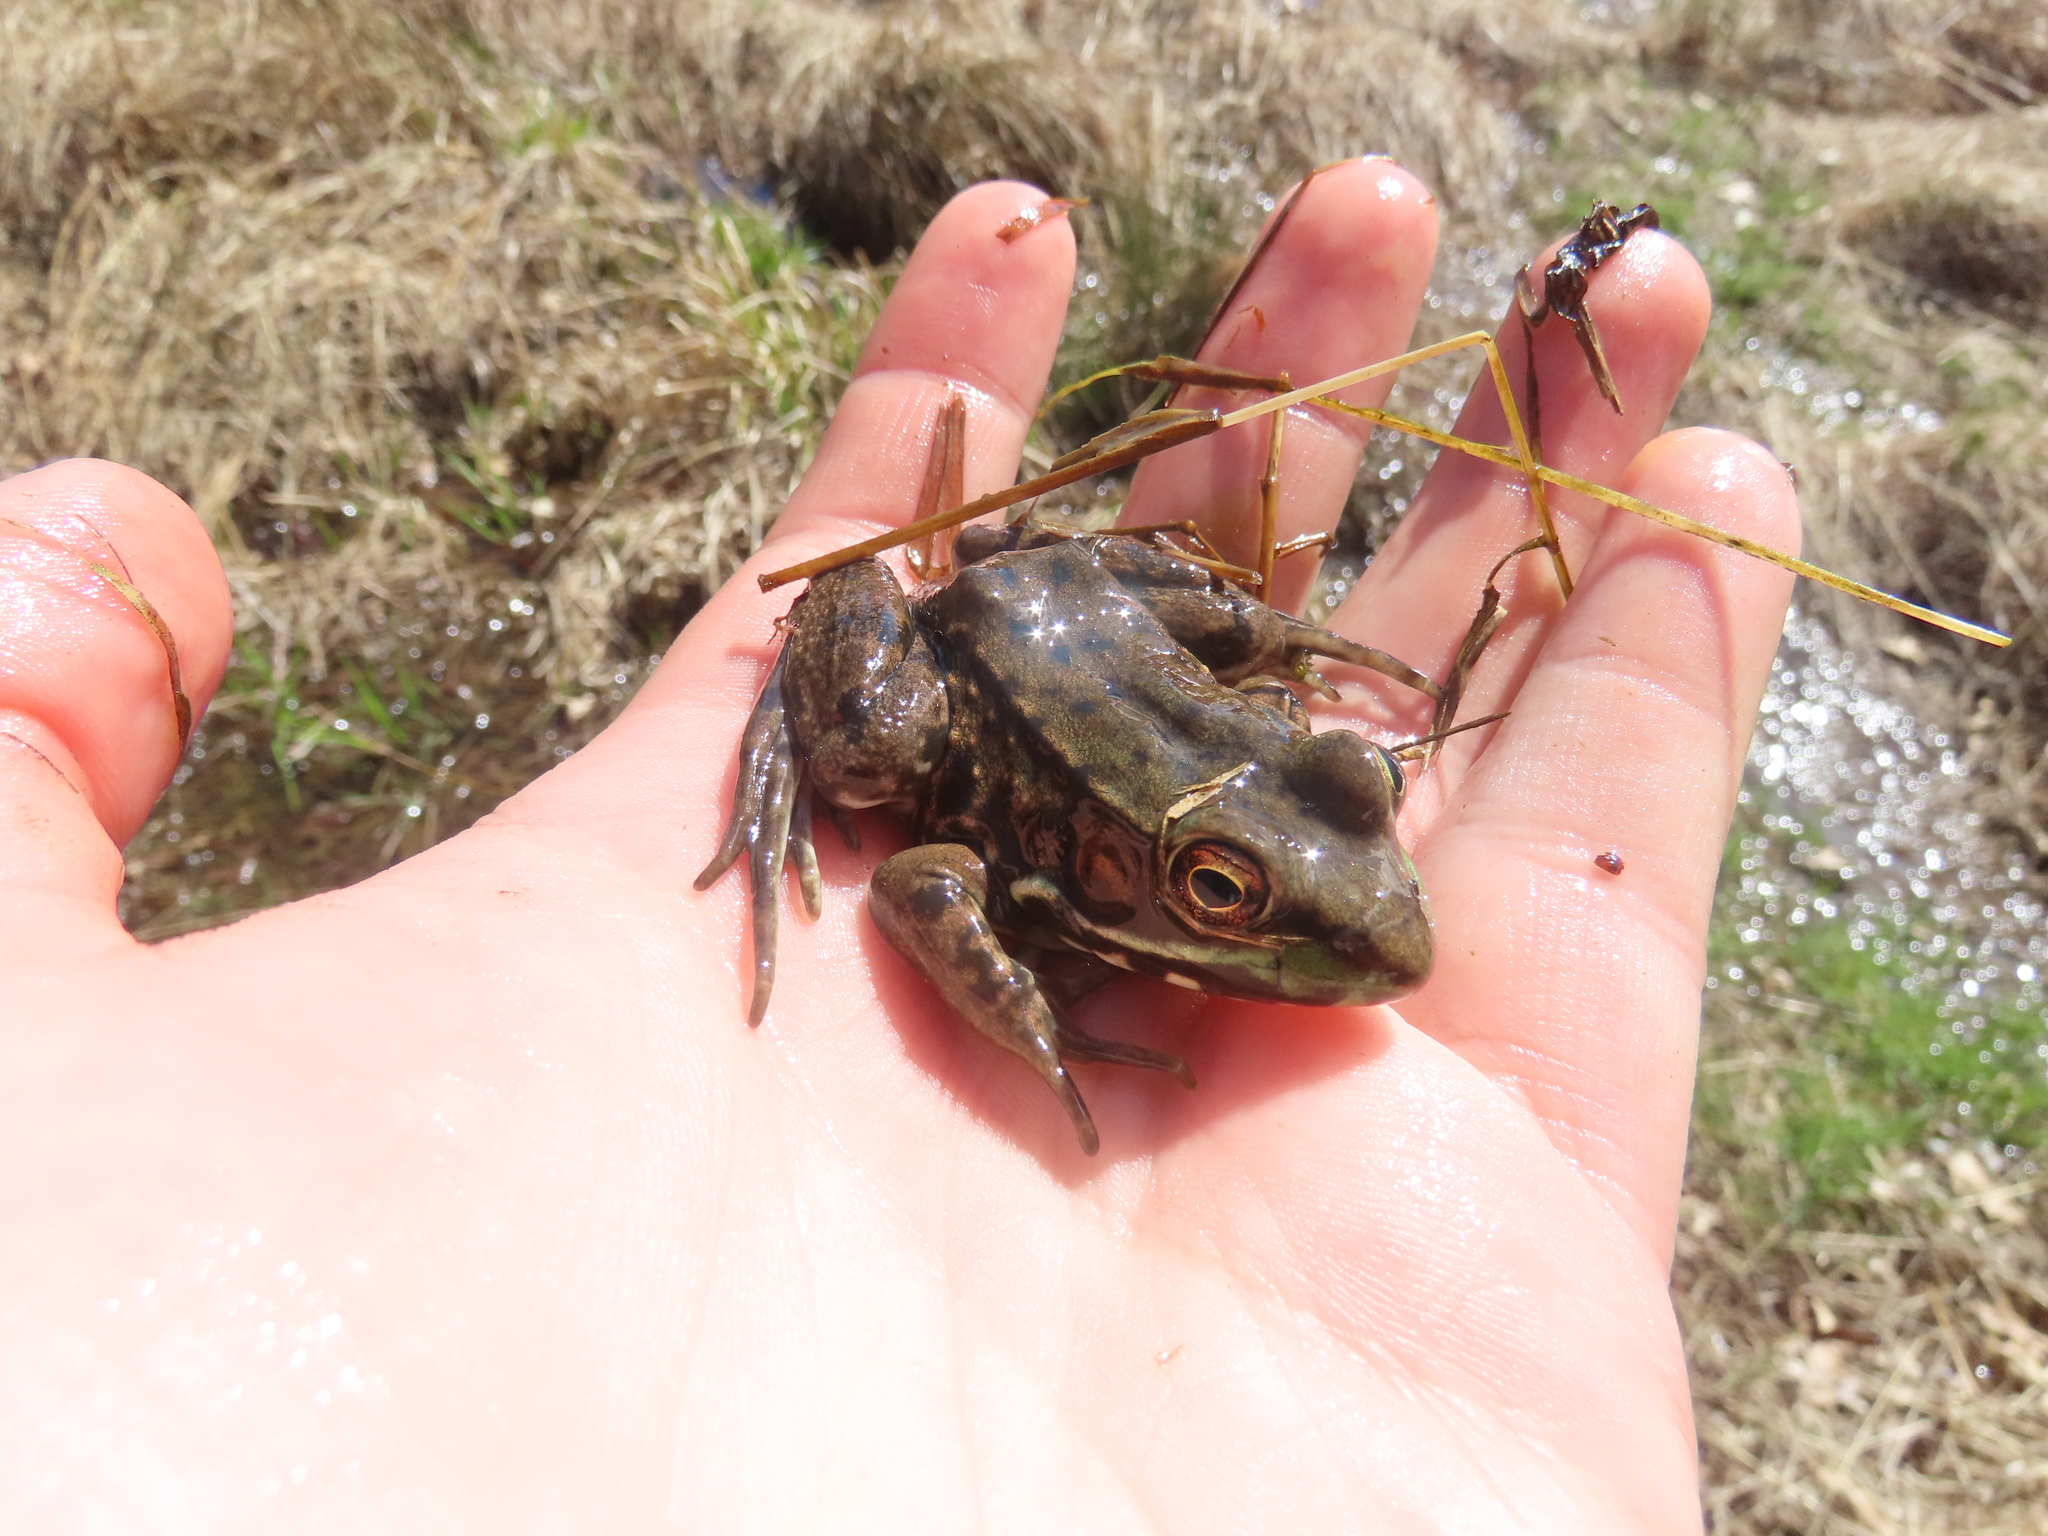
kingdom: Animalia
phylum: Chordata
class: Amphibia
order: Anura
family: Ranidae
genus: Lithobates
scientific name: Lithobates clamitans
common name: Green frog
